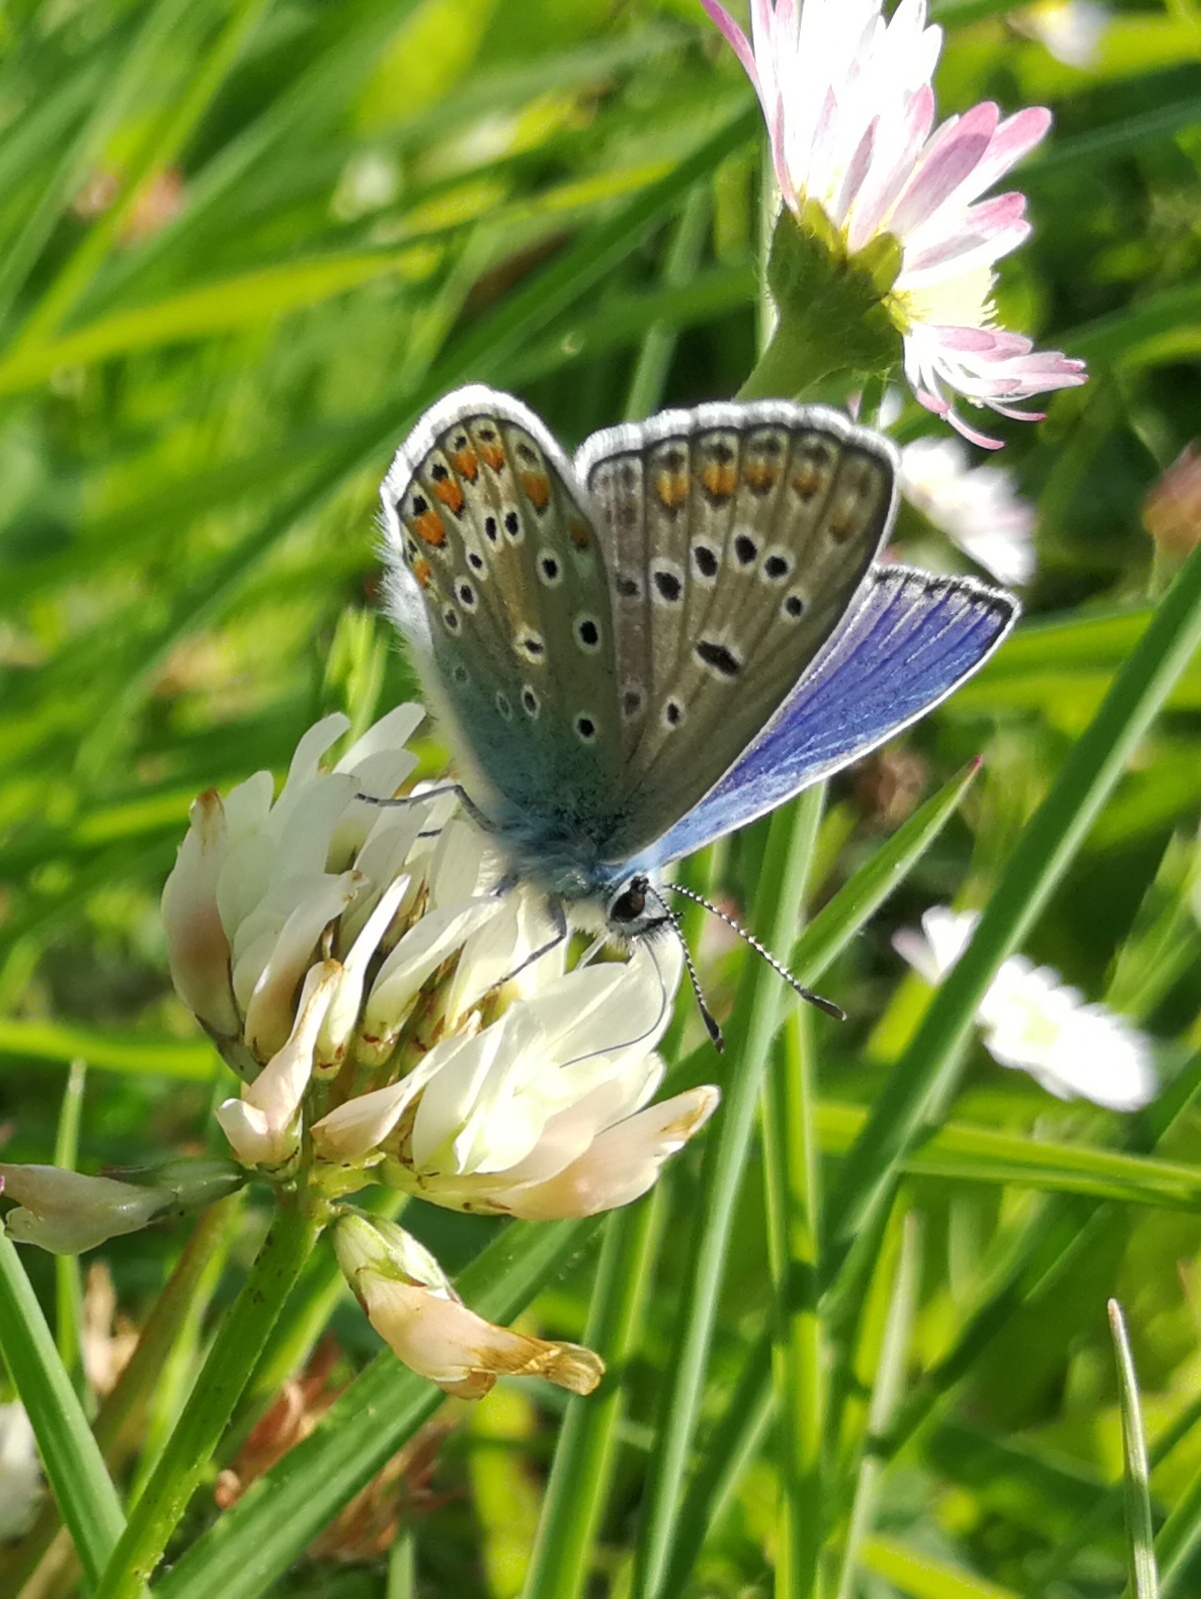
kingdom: Animalia
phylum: Arthropoda
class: Insecta
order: Lepidoptera
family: Lycaenidae
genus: Polyommatus
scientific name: Polyommatus icarus
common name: Common blue
